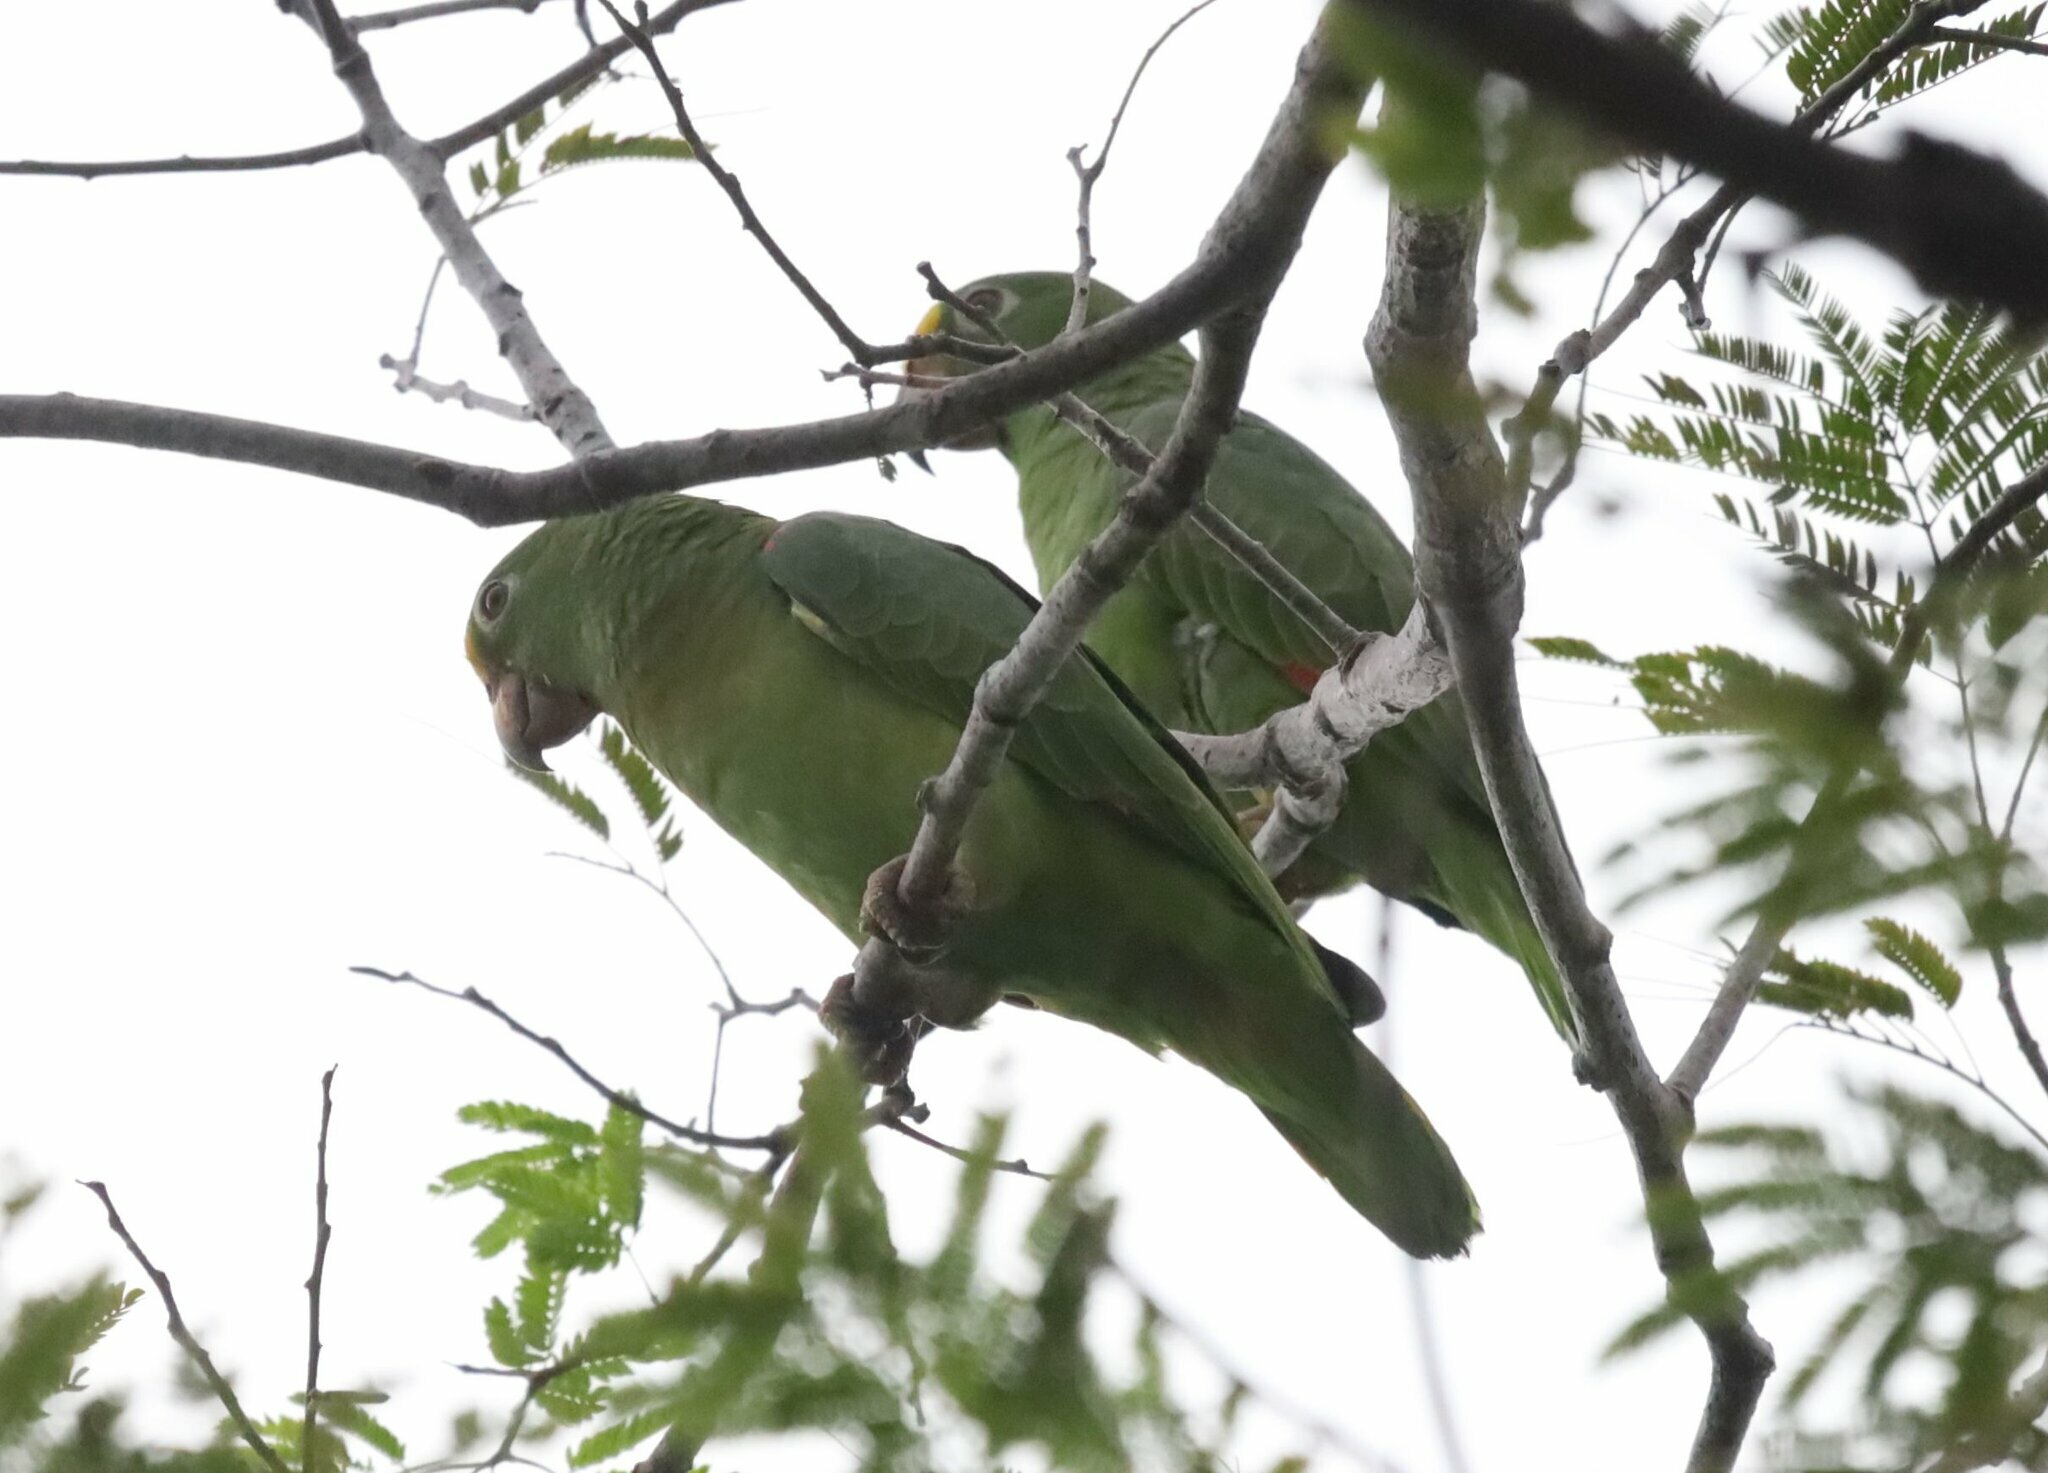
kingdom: Animalia
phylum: Chordata
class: Aves
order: Psittaciformes
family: Psittacidae
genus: Amazona
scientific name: Amazona ochrocephala
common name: Yellow-crowned amazon
